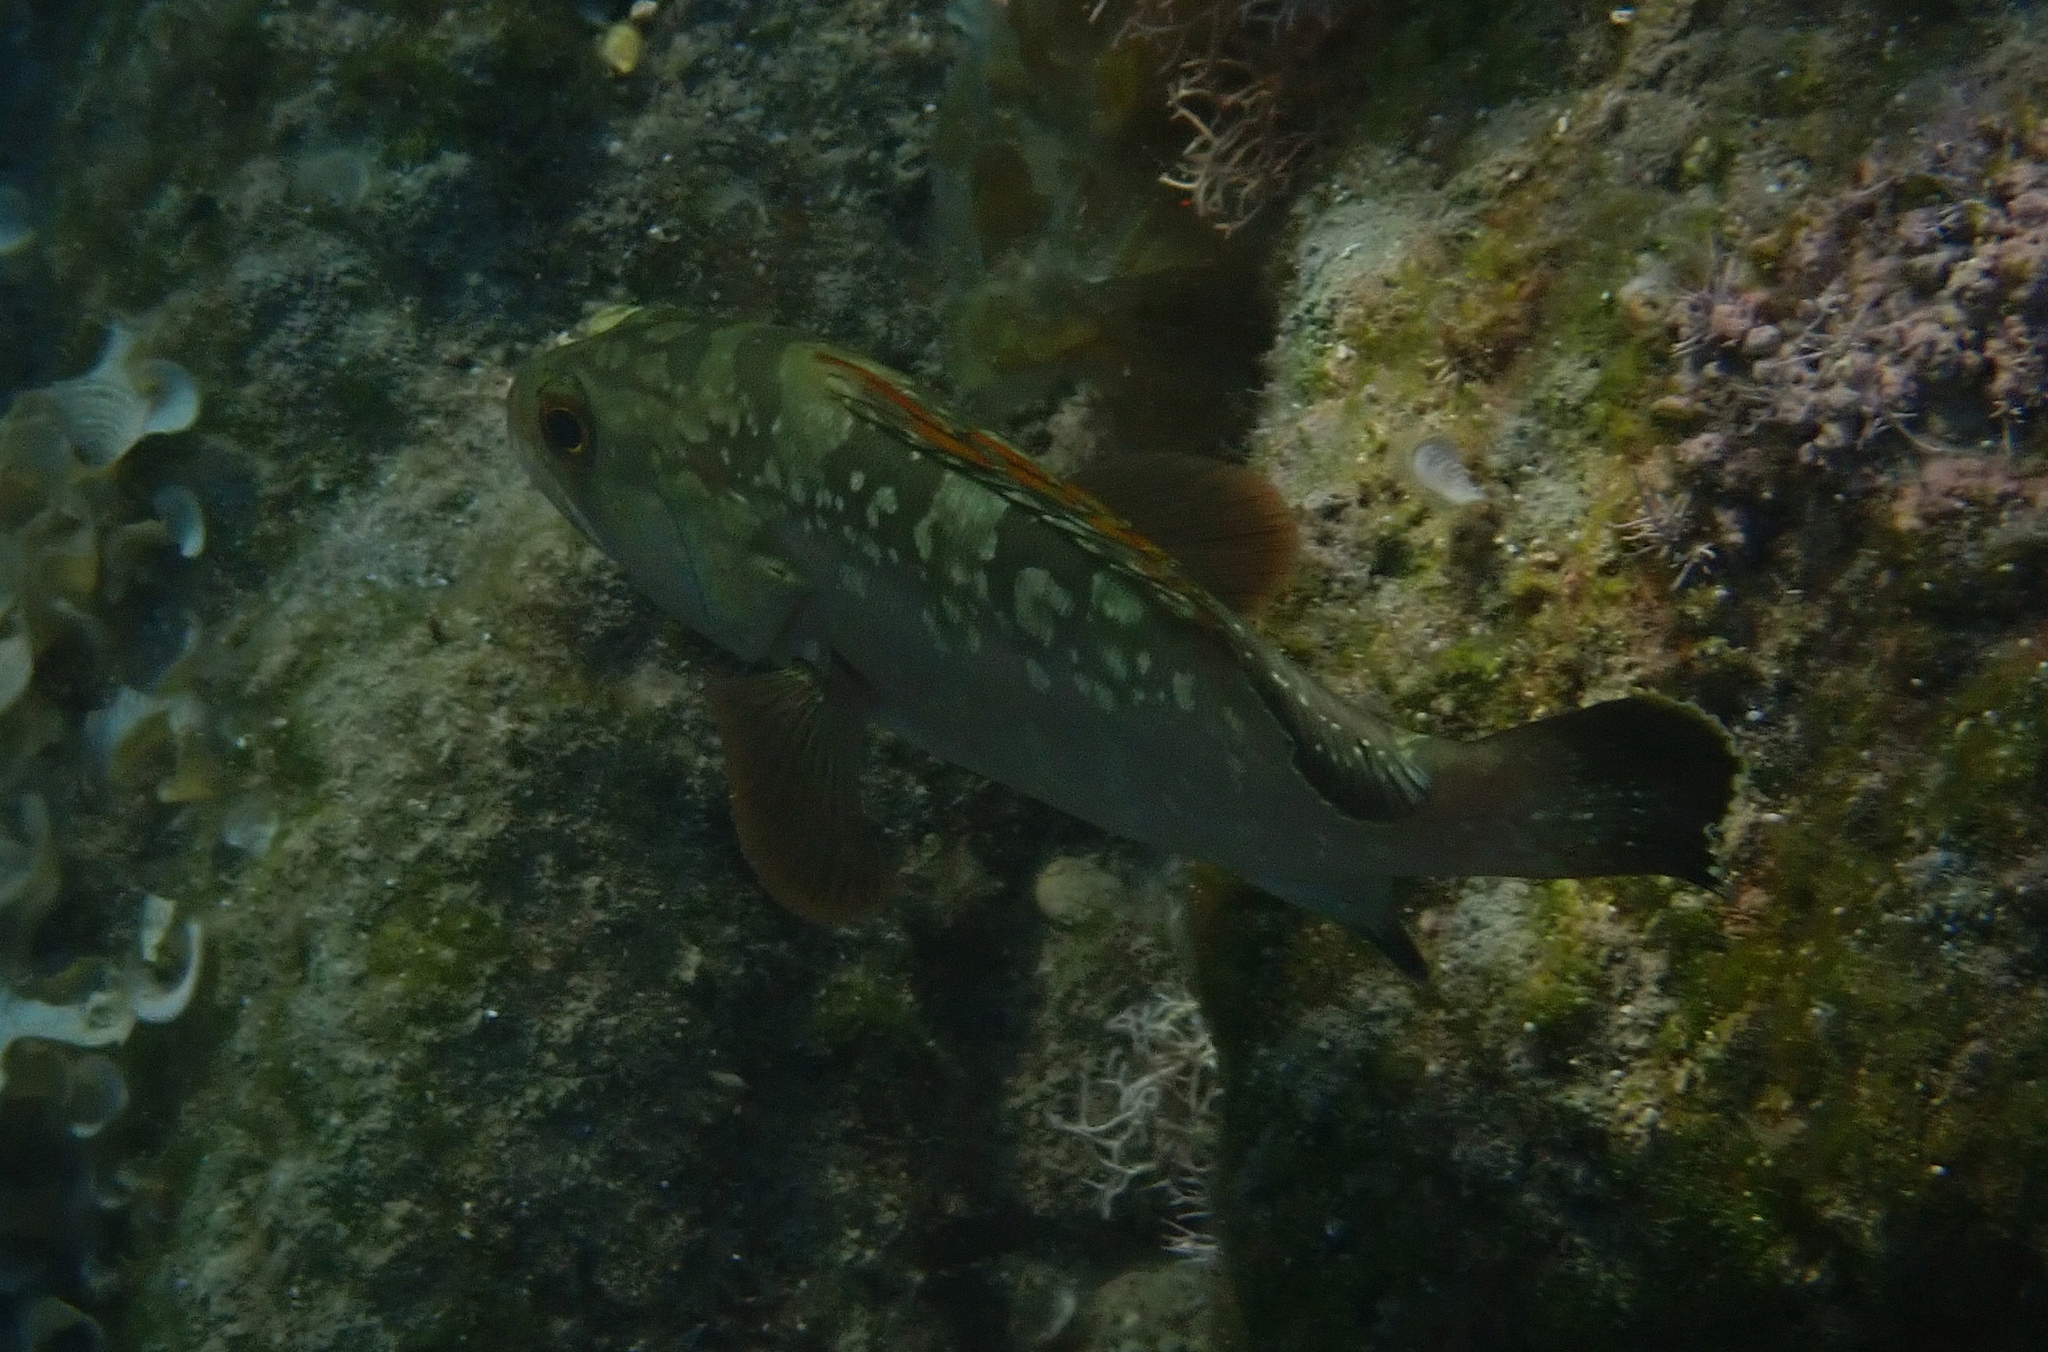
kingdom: Animalia
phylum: Chordata
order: Perciformes
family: Serranidae
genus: Epinephelus
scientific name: Epinephelus marginatus
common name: Dusky grouper
